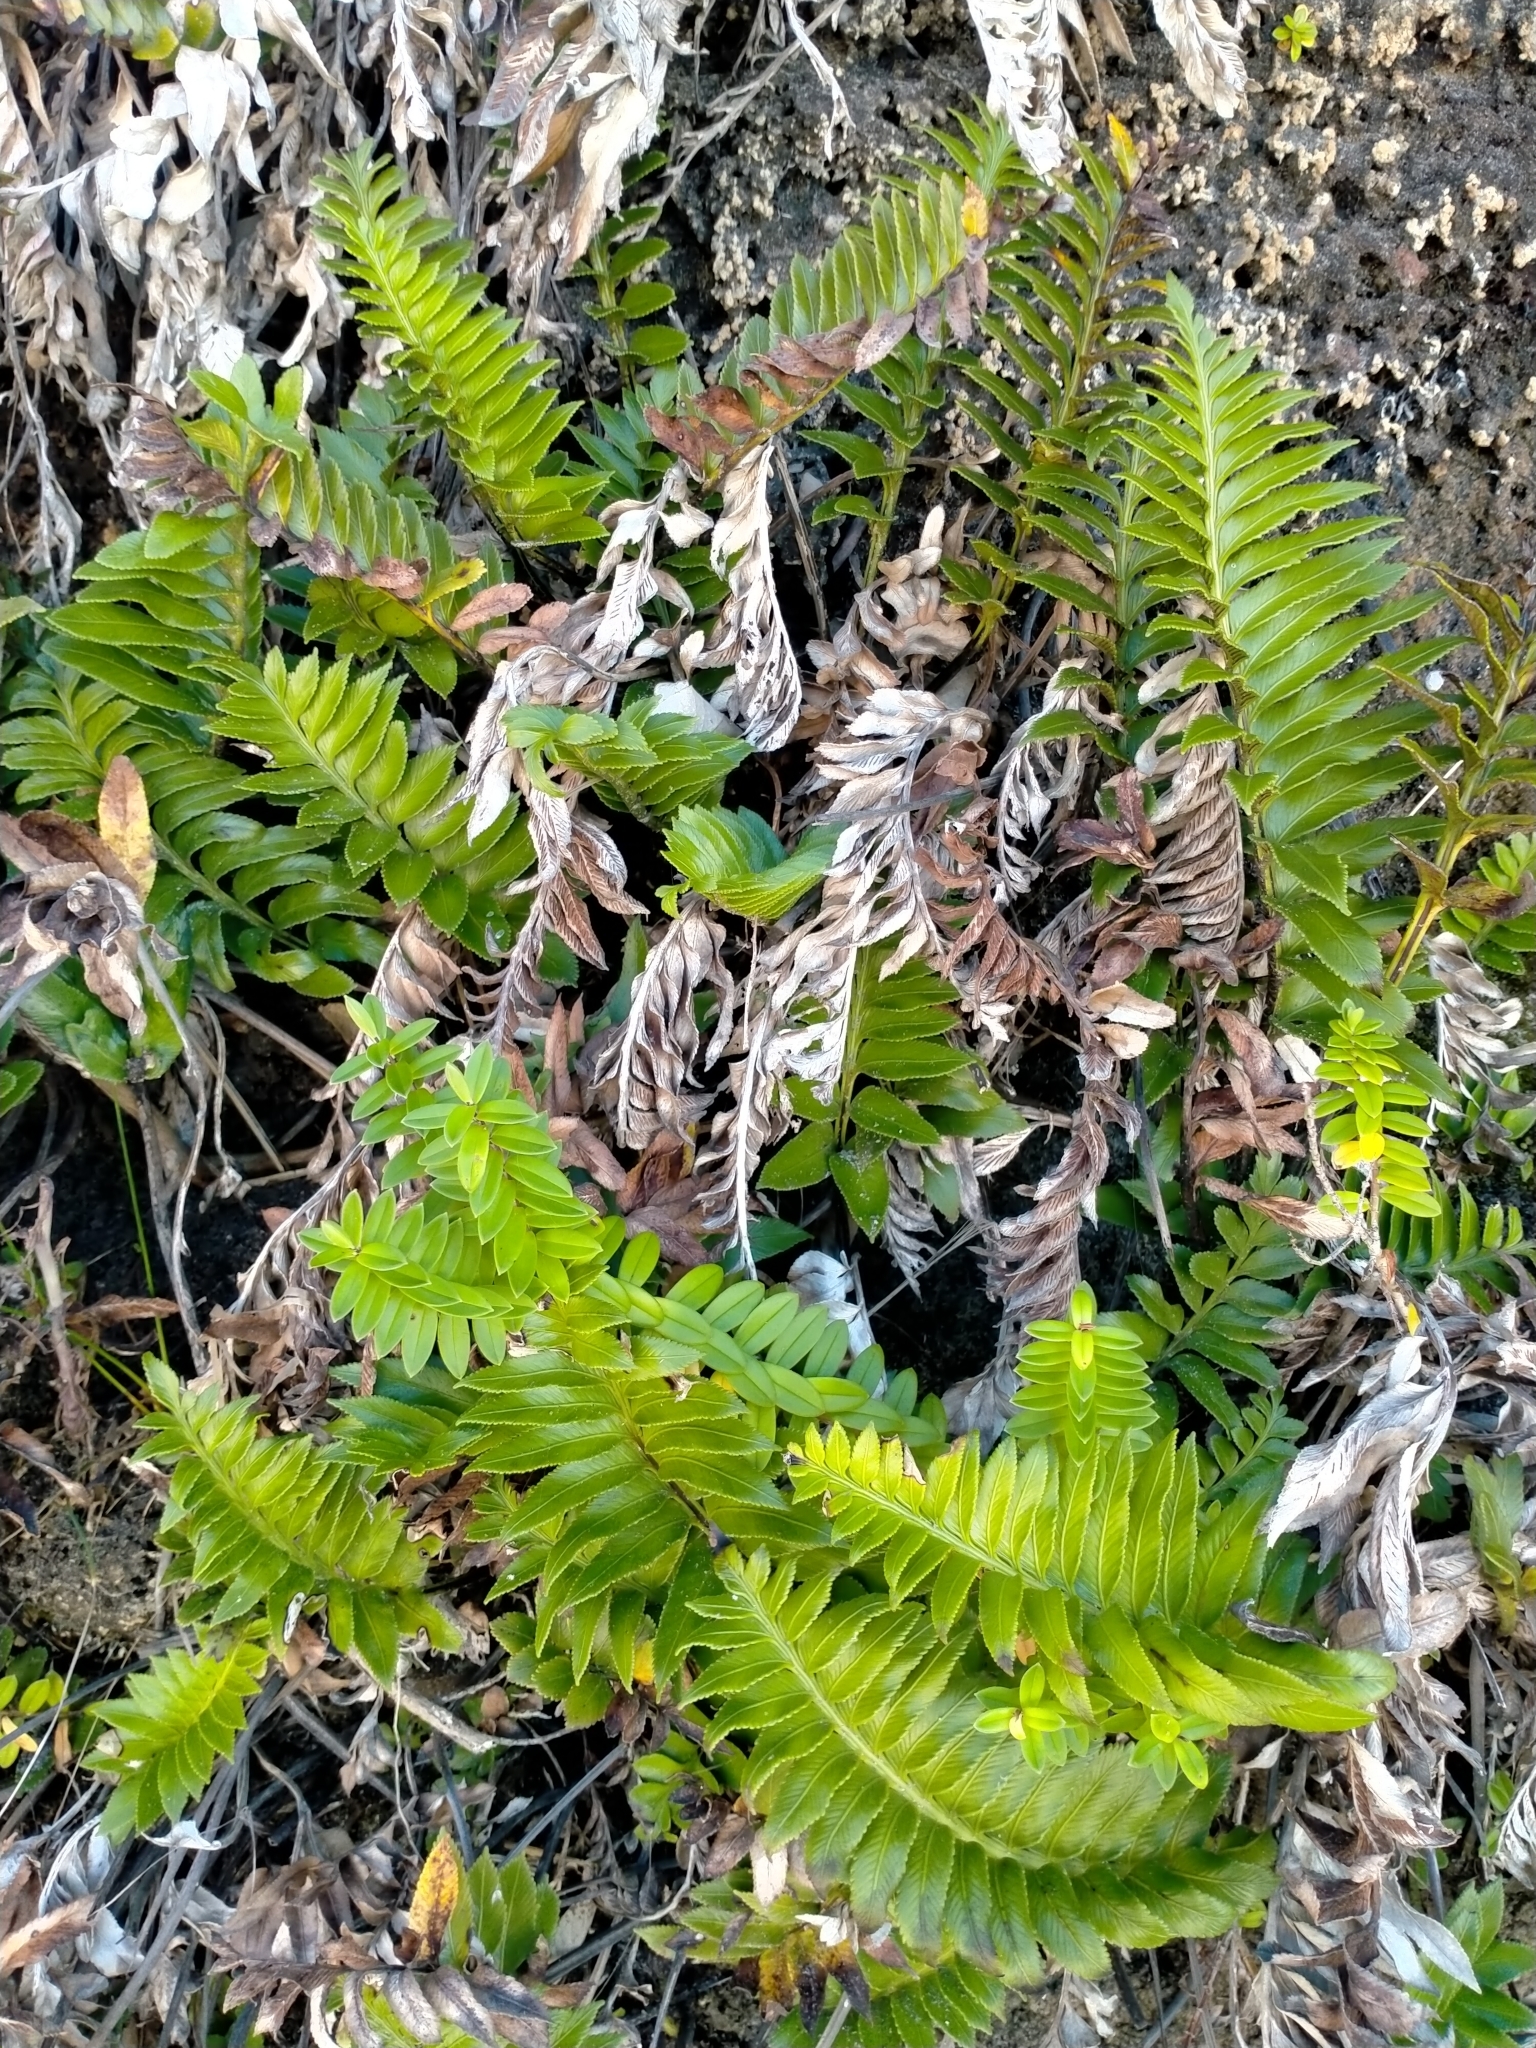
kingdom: Plantae
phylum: Tracheophyta
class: Polypodiopsida
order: Polypodiales
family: Aspleniaceae
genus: Asplenium
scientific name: Asplenium obtusatum
